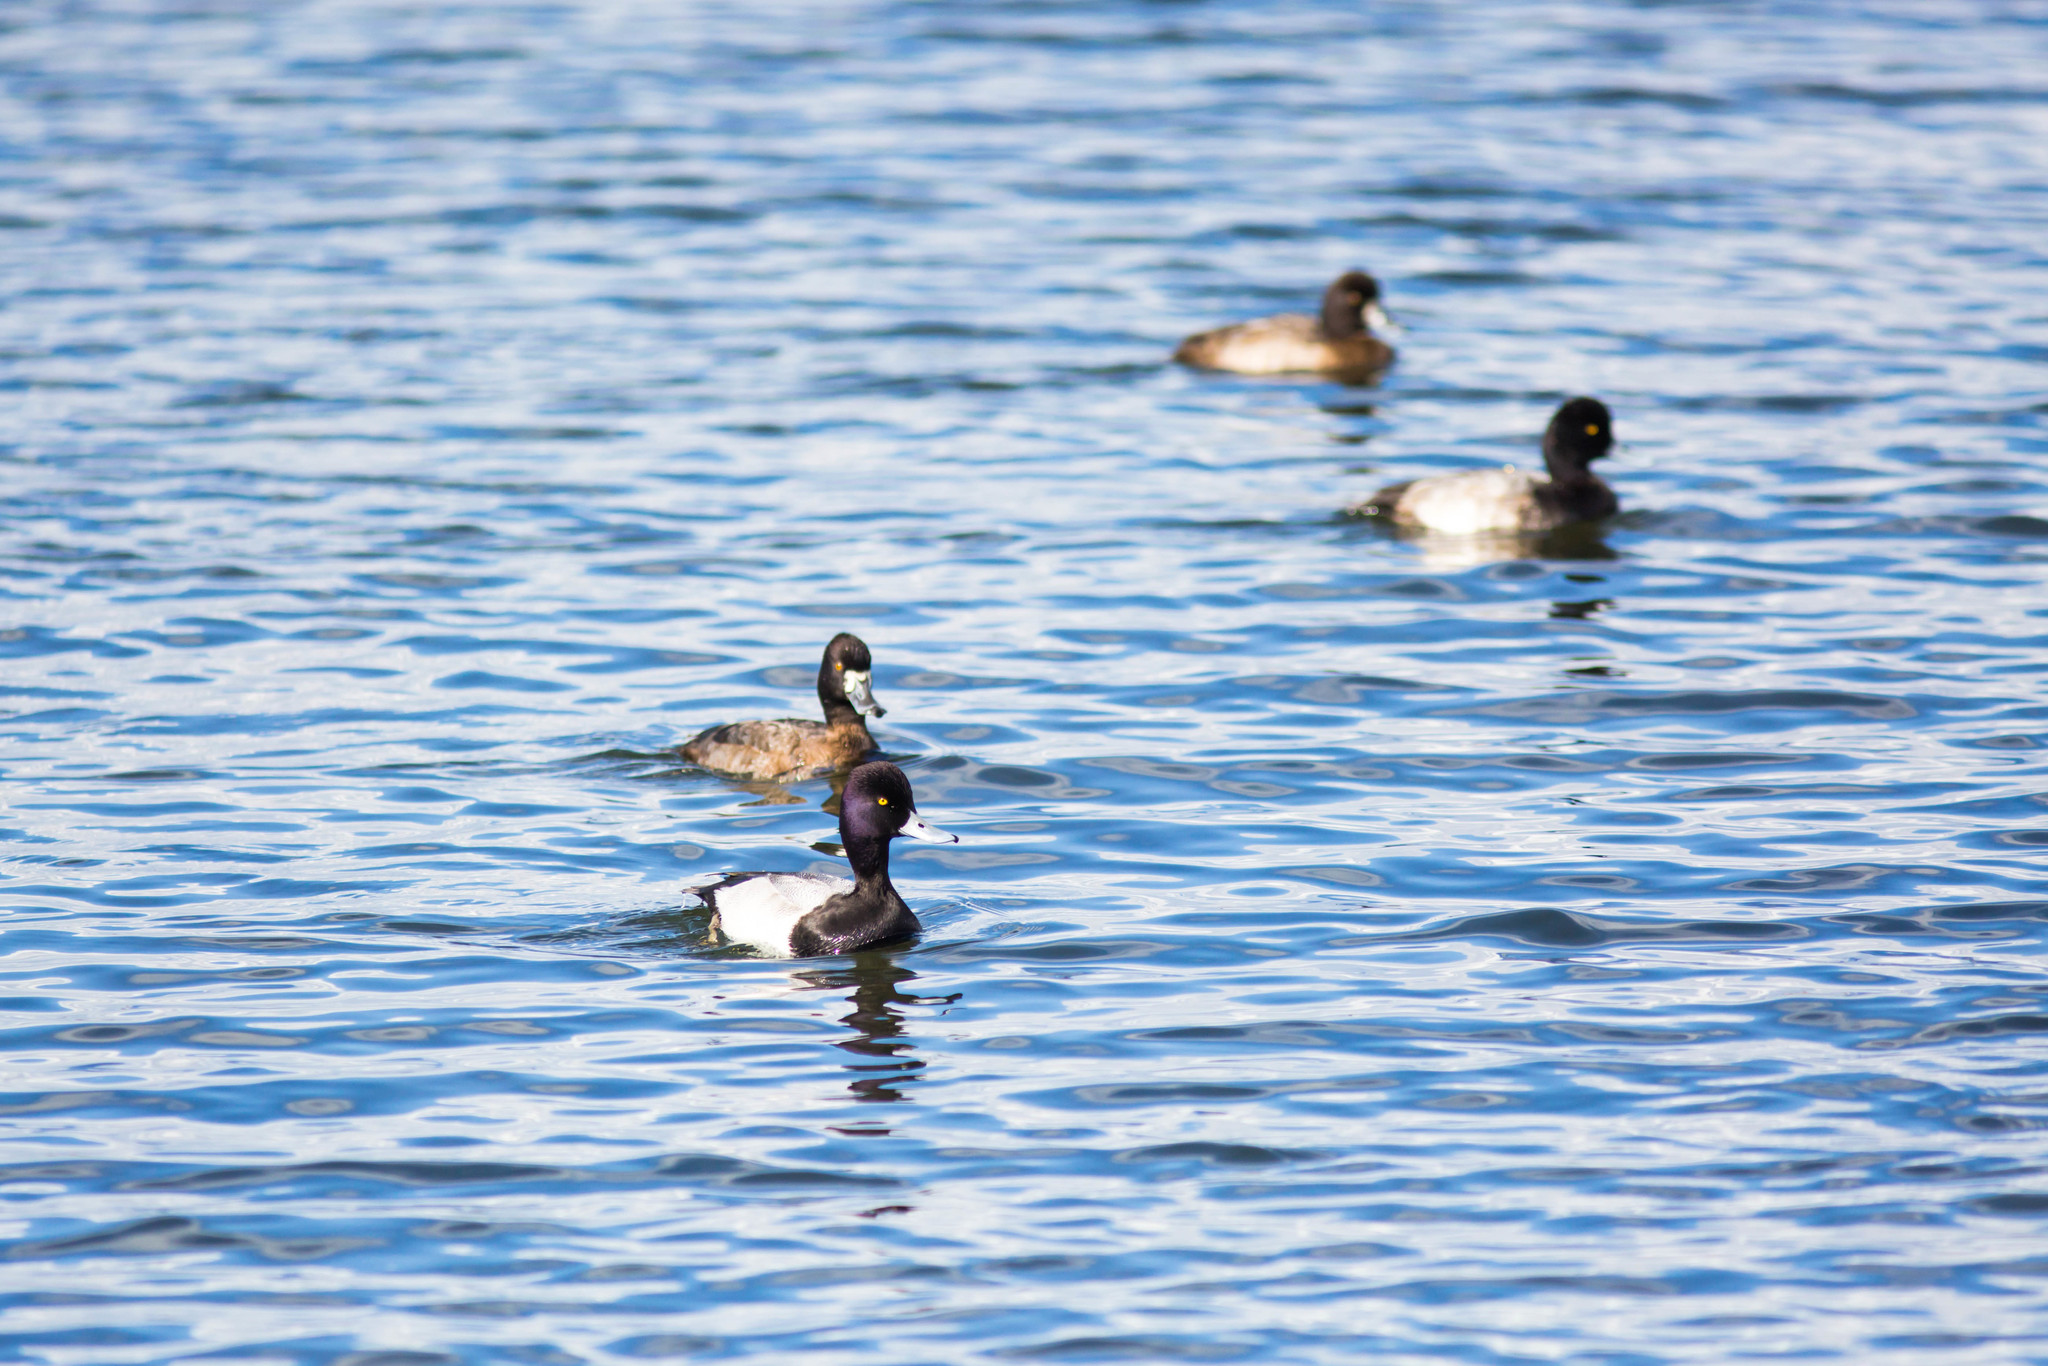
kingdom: Animalia
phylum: Chordata
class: Aves
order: Anseriformes
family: Anatidae
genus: Aythya
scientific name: Aythya affinis
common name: Lesser scaup
